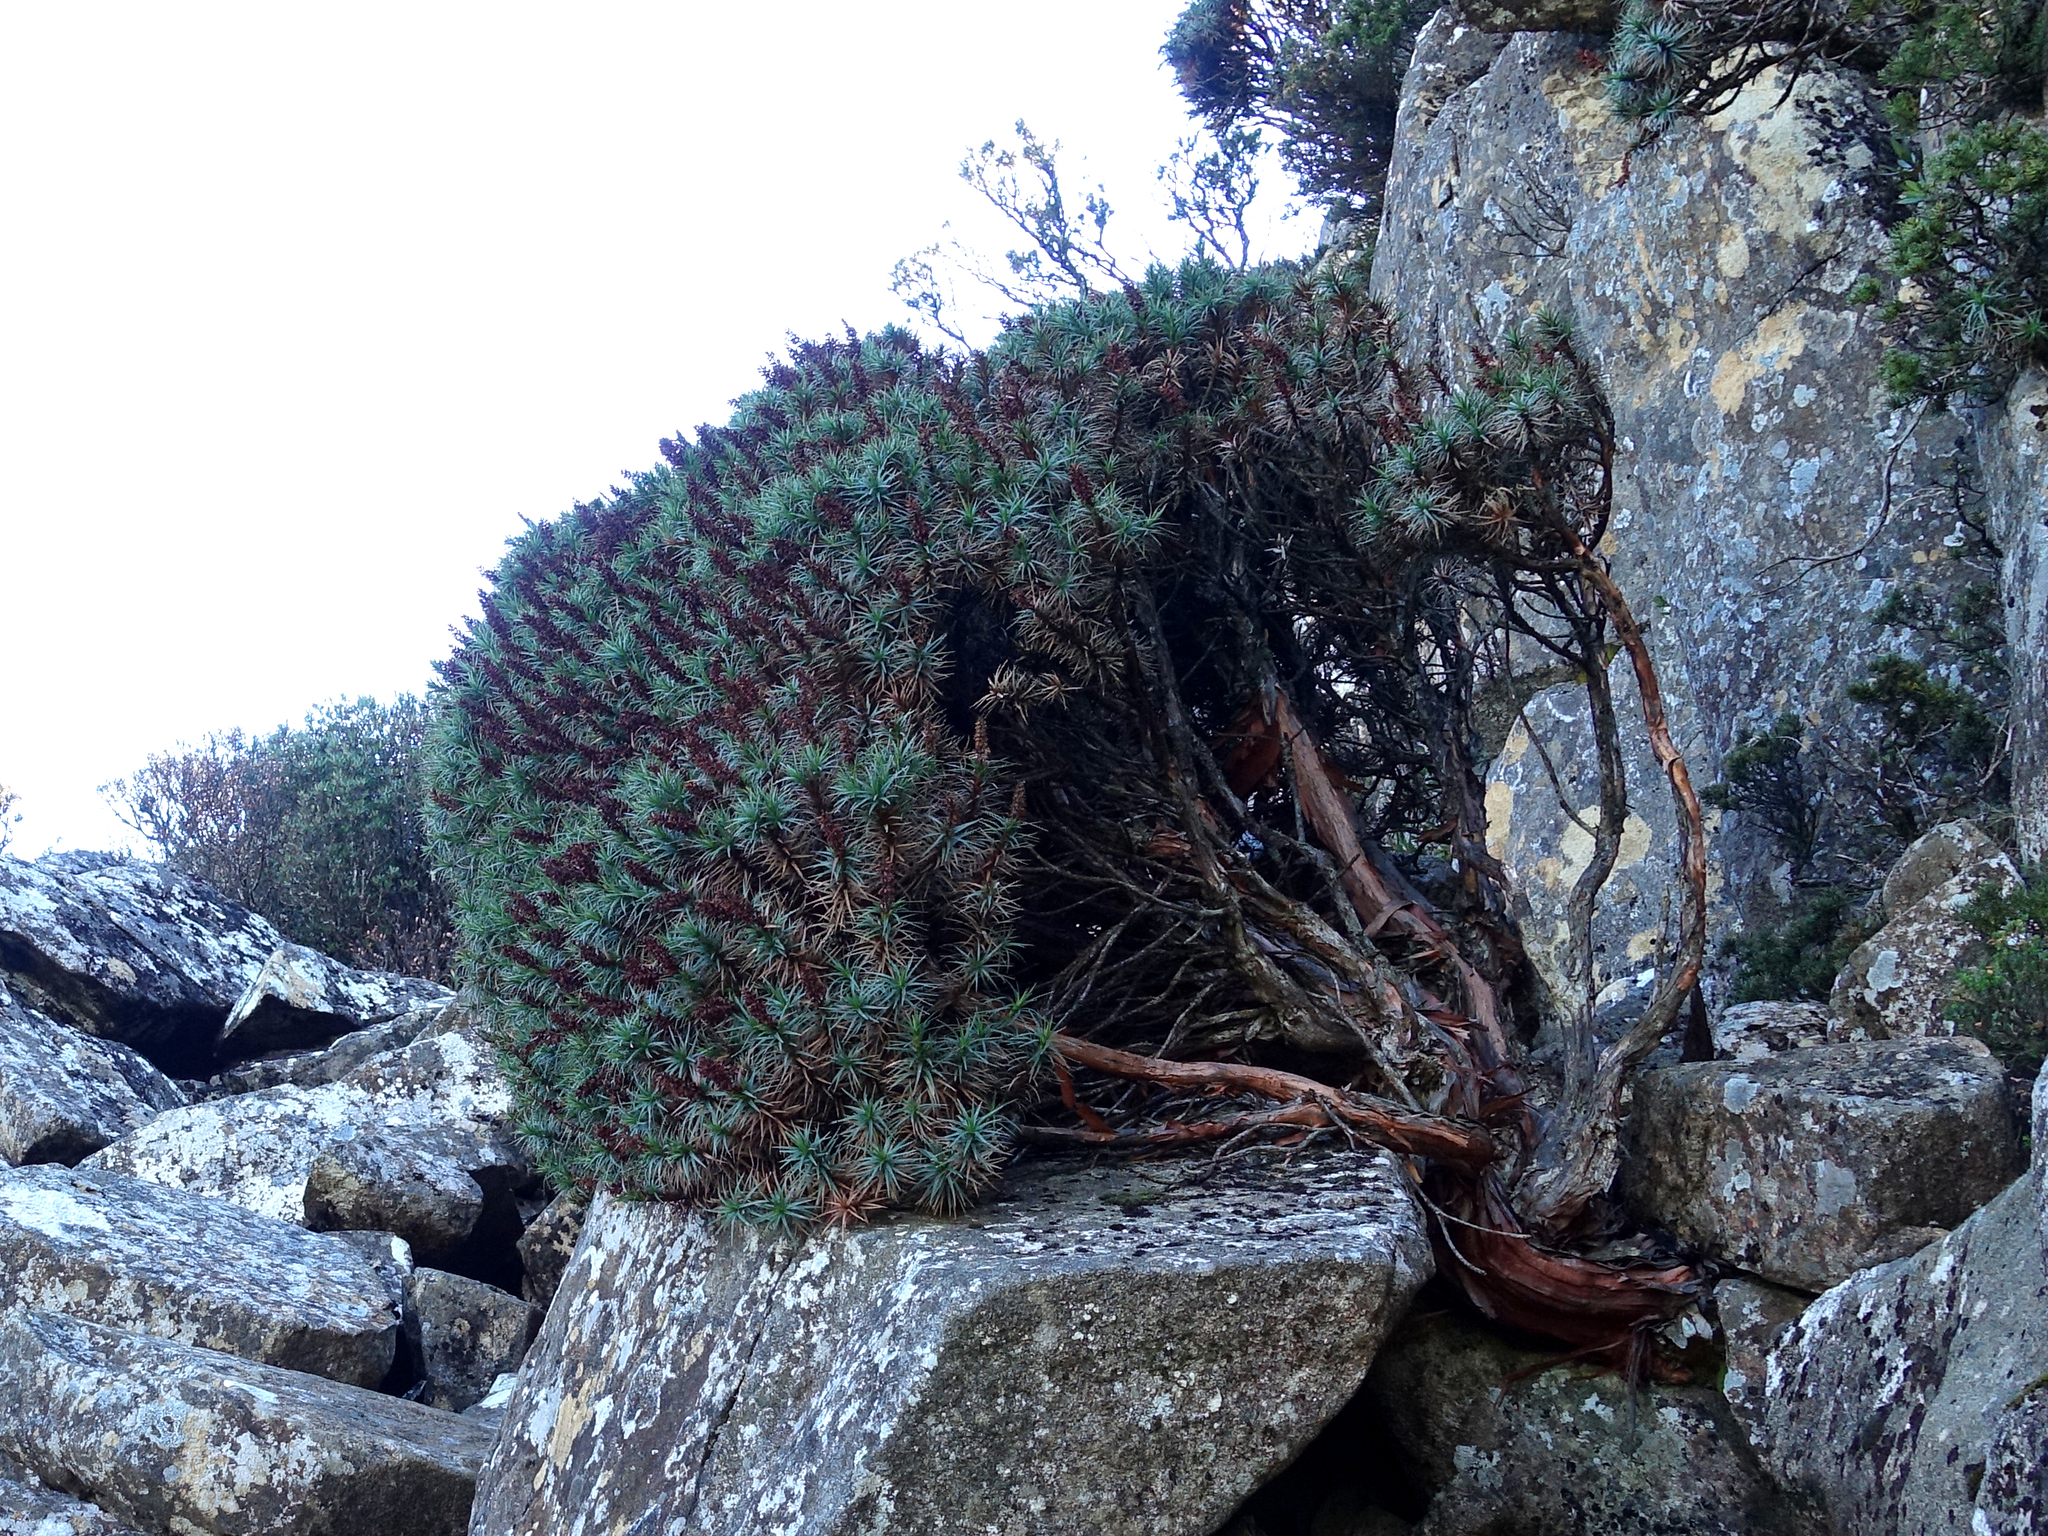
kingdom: Plantae
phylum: Tracheophyta
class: Magnoliopsida
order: Ericales
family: Ericaceae
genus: Dracophyllum
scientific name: Dracophyllum persistentifolium
